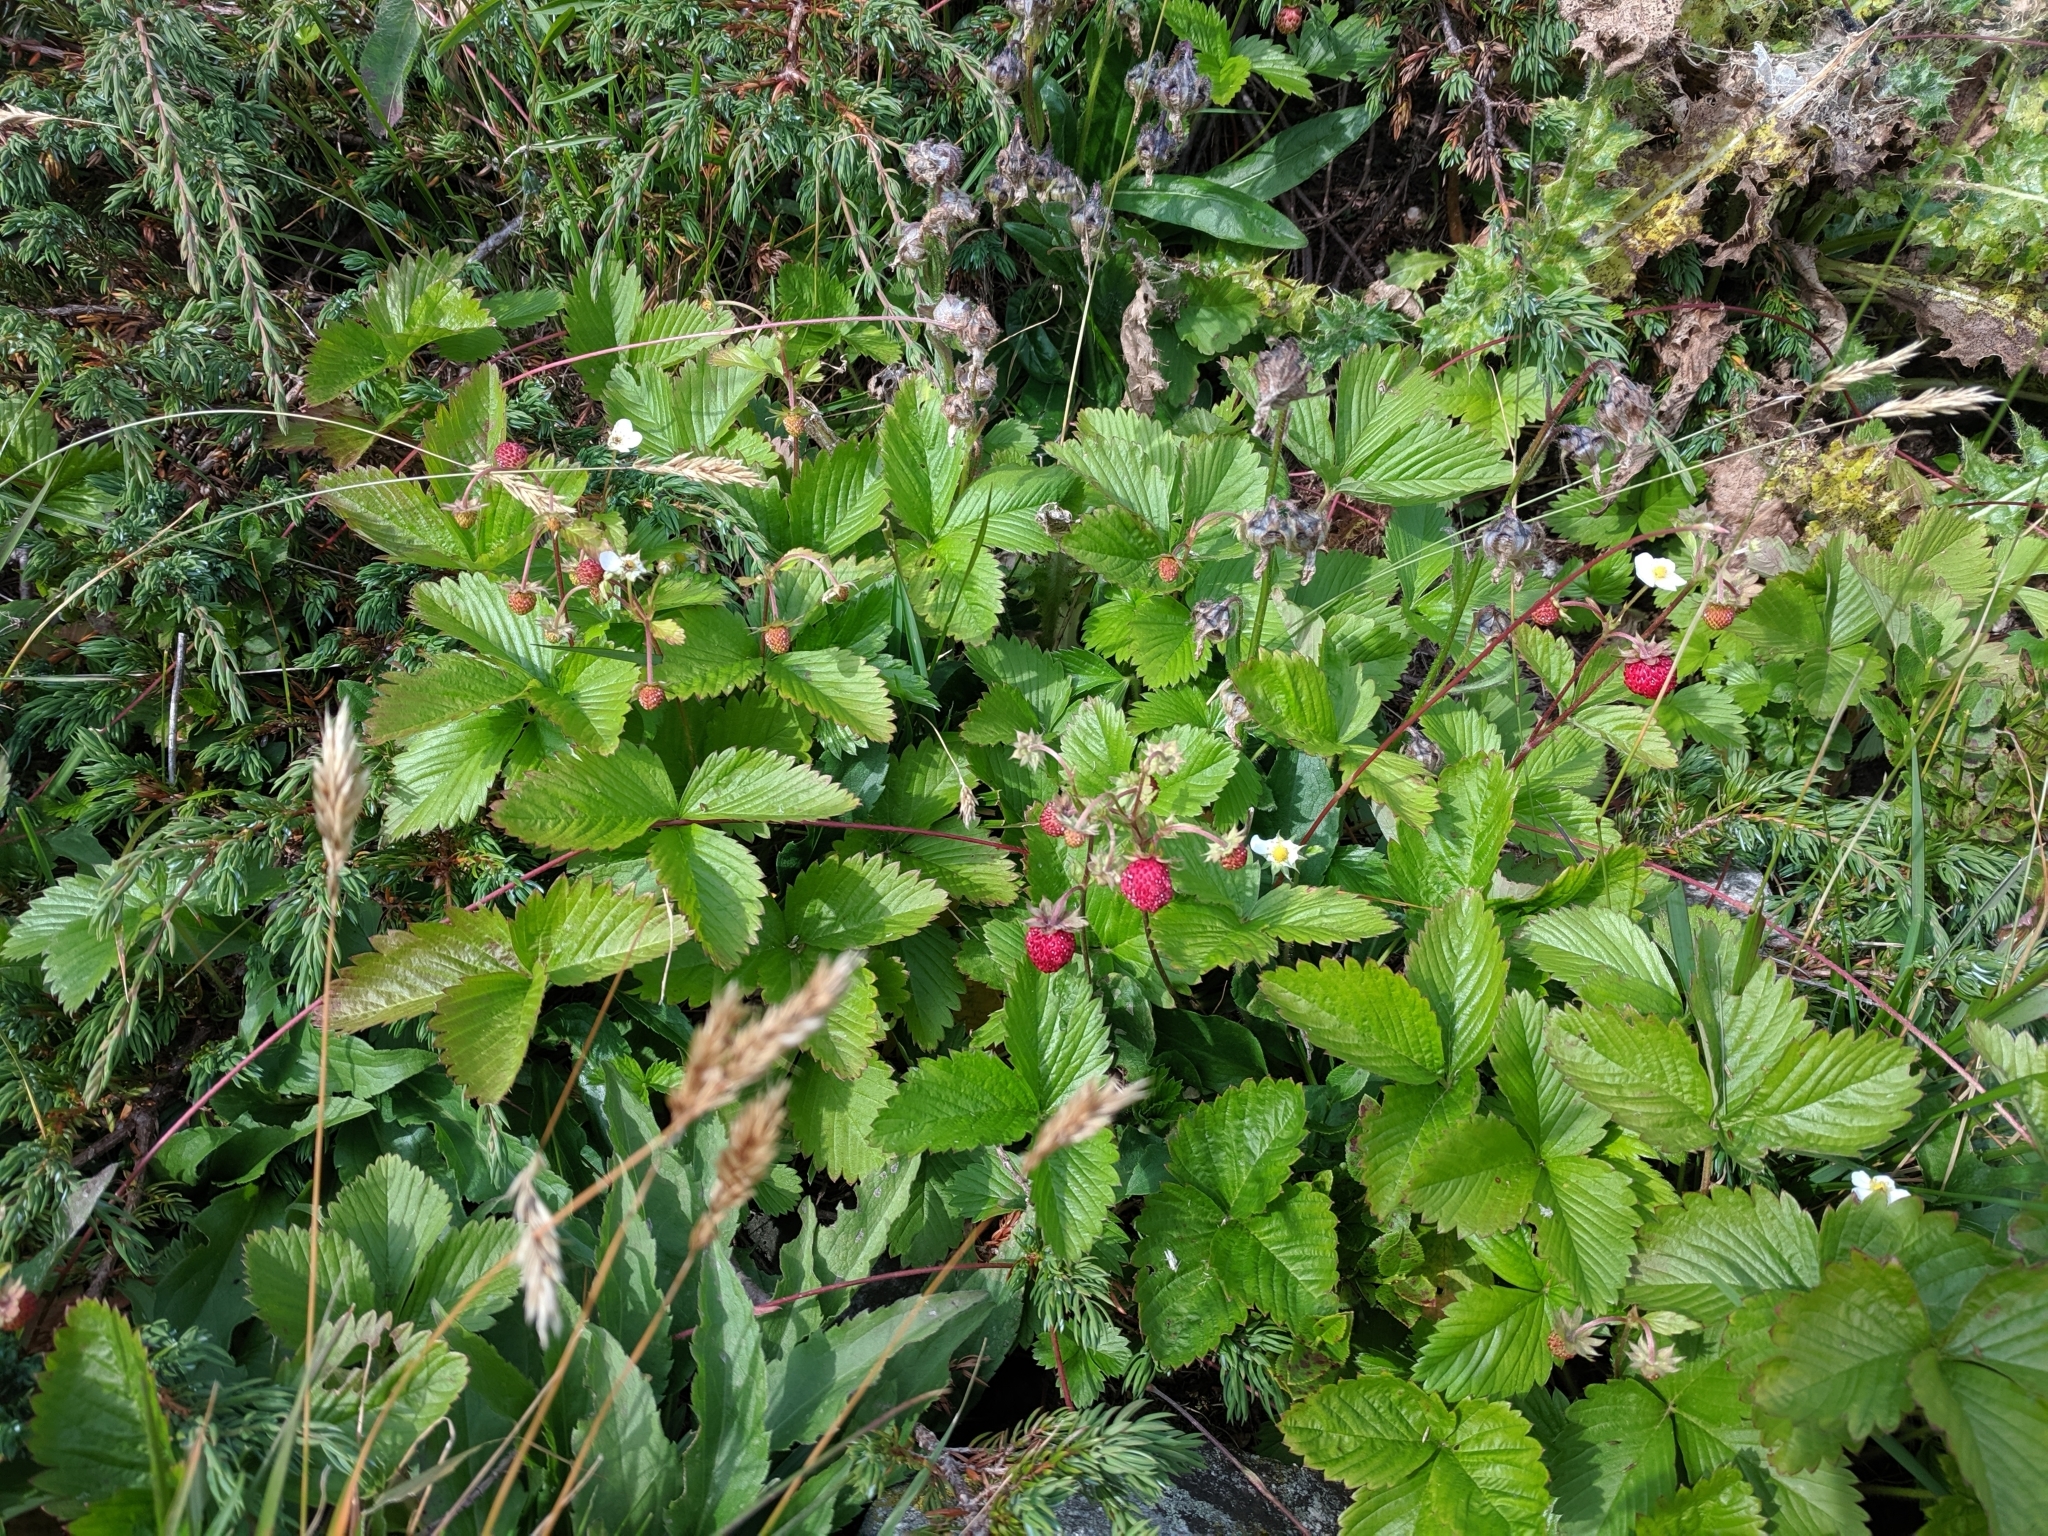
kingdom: Plantae
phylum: Tracheophyta
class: Magnoliopsida
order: Rosales
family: Rosaceae
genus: Fragaria
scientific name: Fragaria vesca
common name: Wild strawberry
